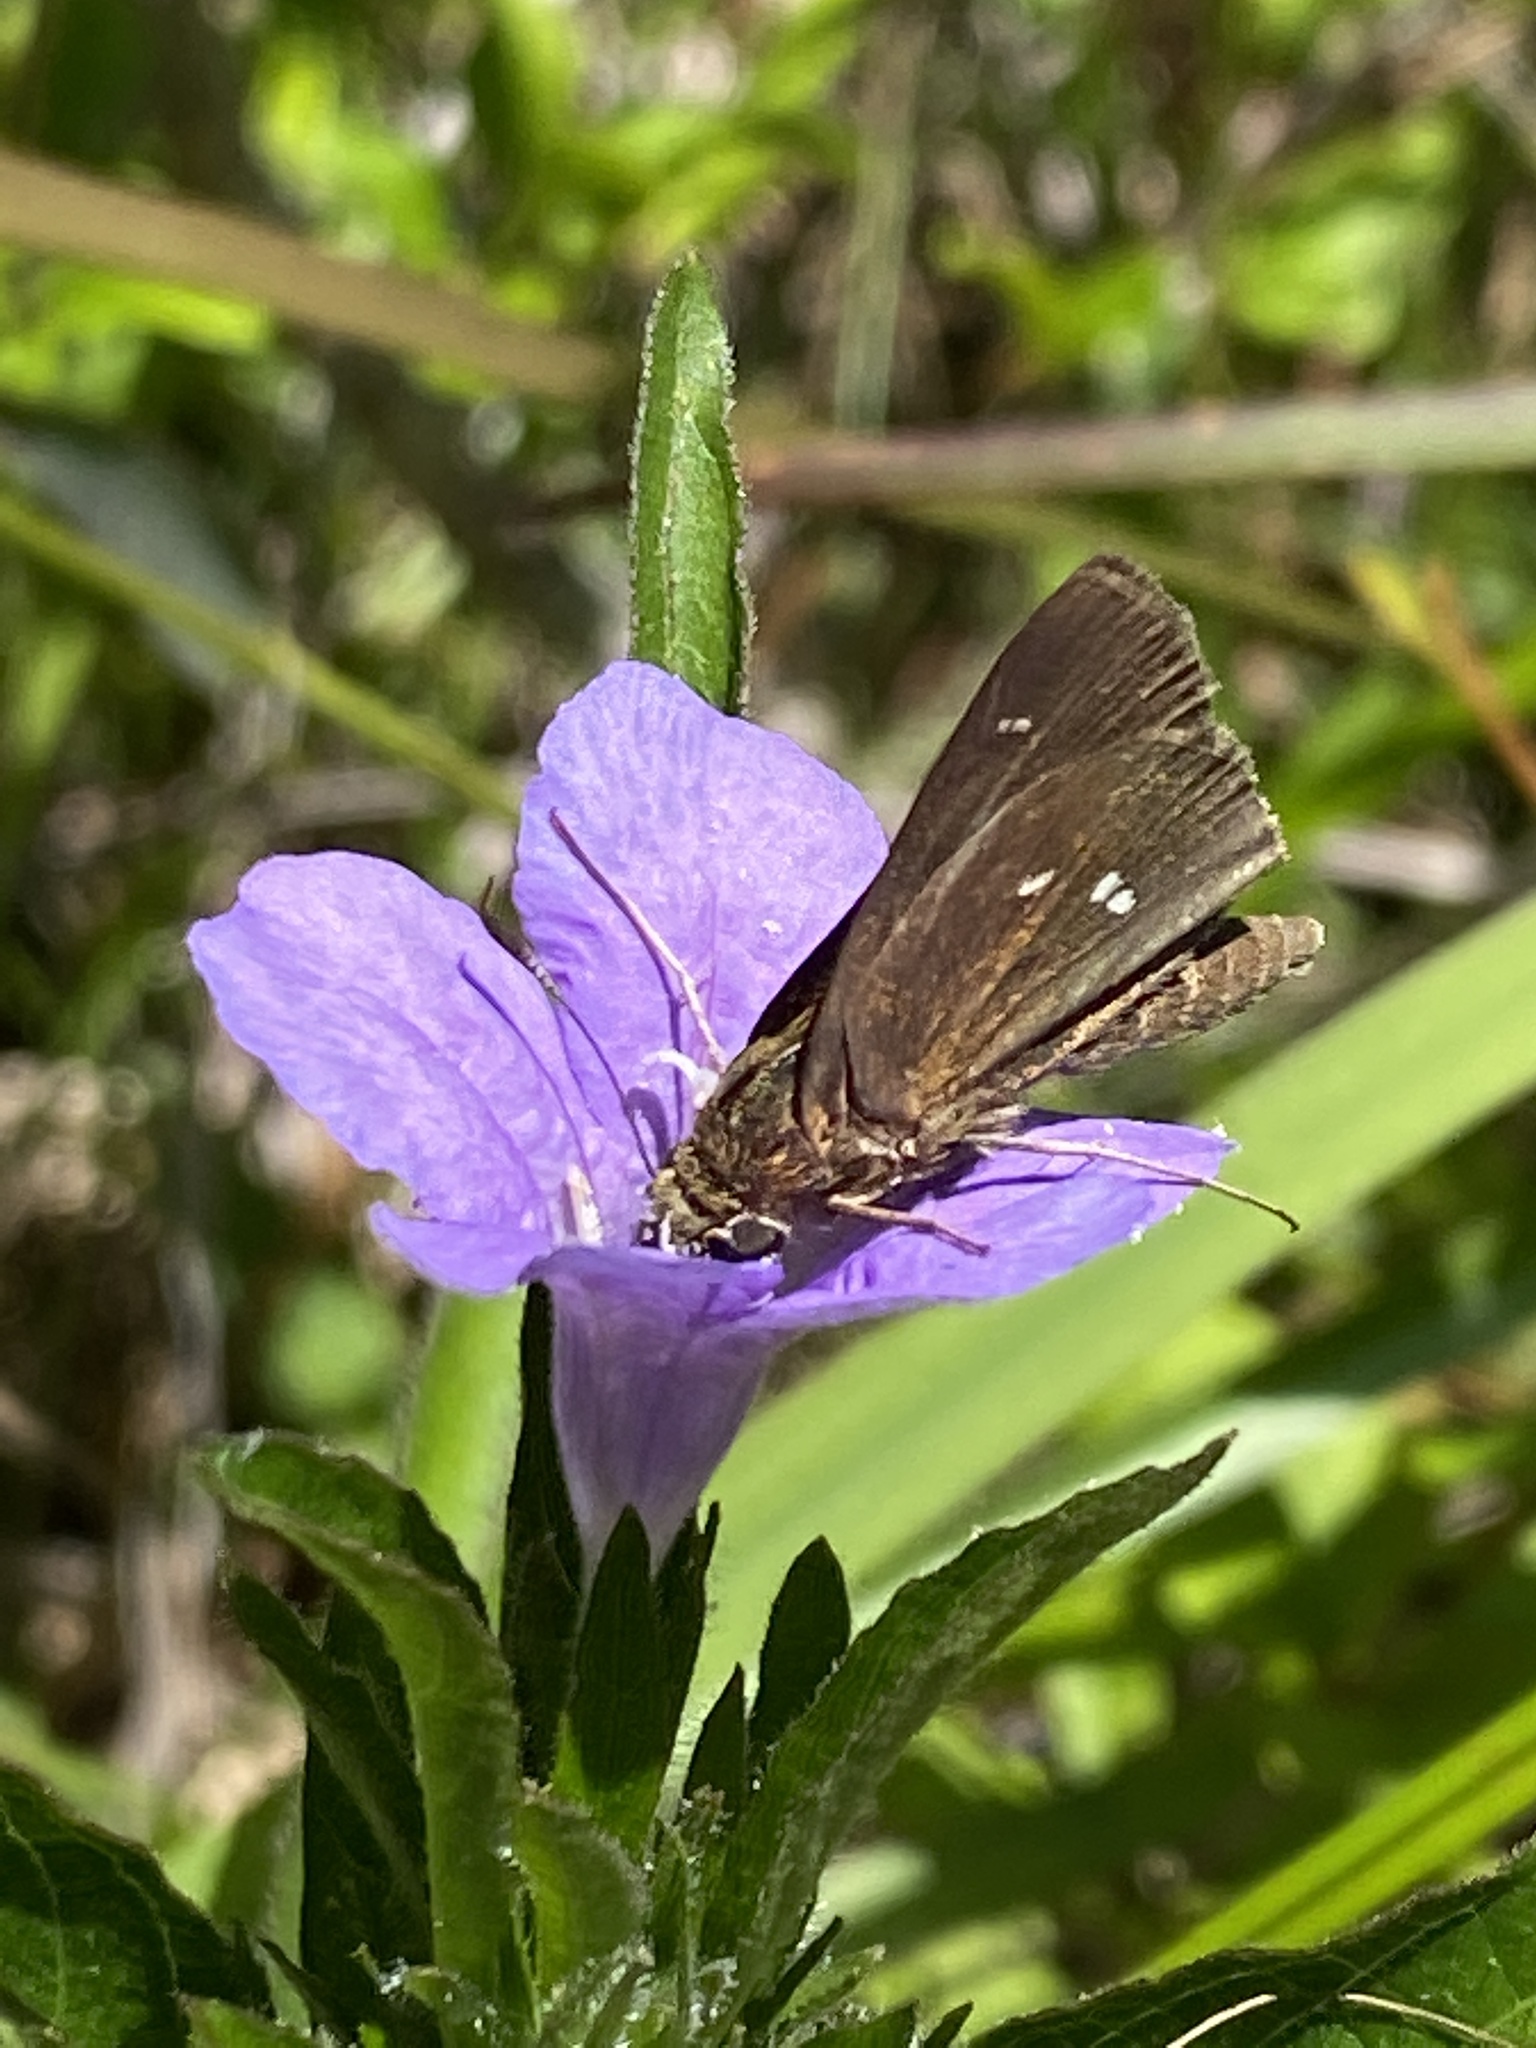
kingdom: Animalia
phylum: Arthropoda
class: Insecta
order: Lepidoptera
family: Hesperiidae
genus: Oligoria
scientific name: Oligoria maculata
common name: Twin-spot skipper
